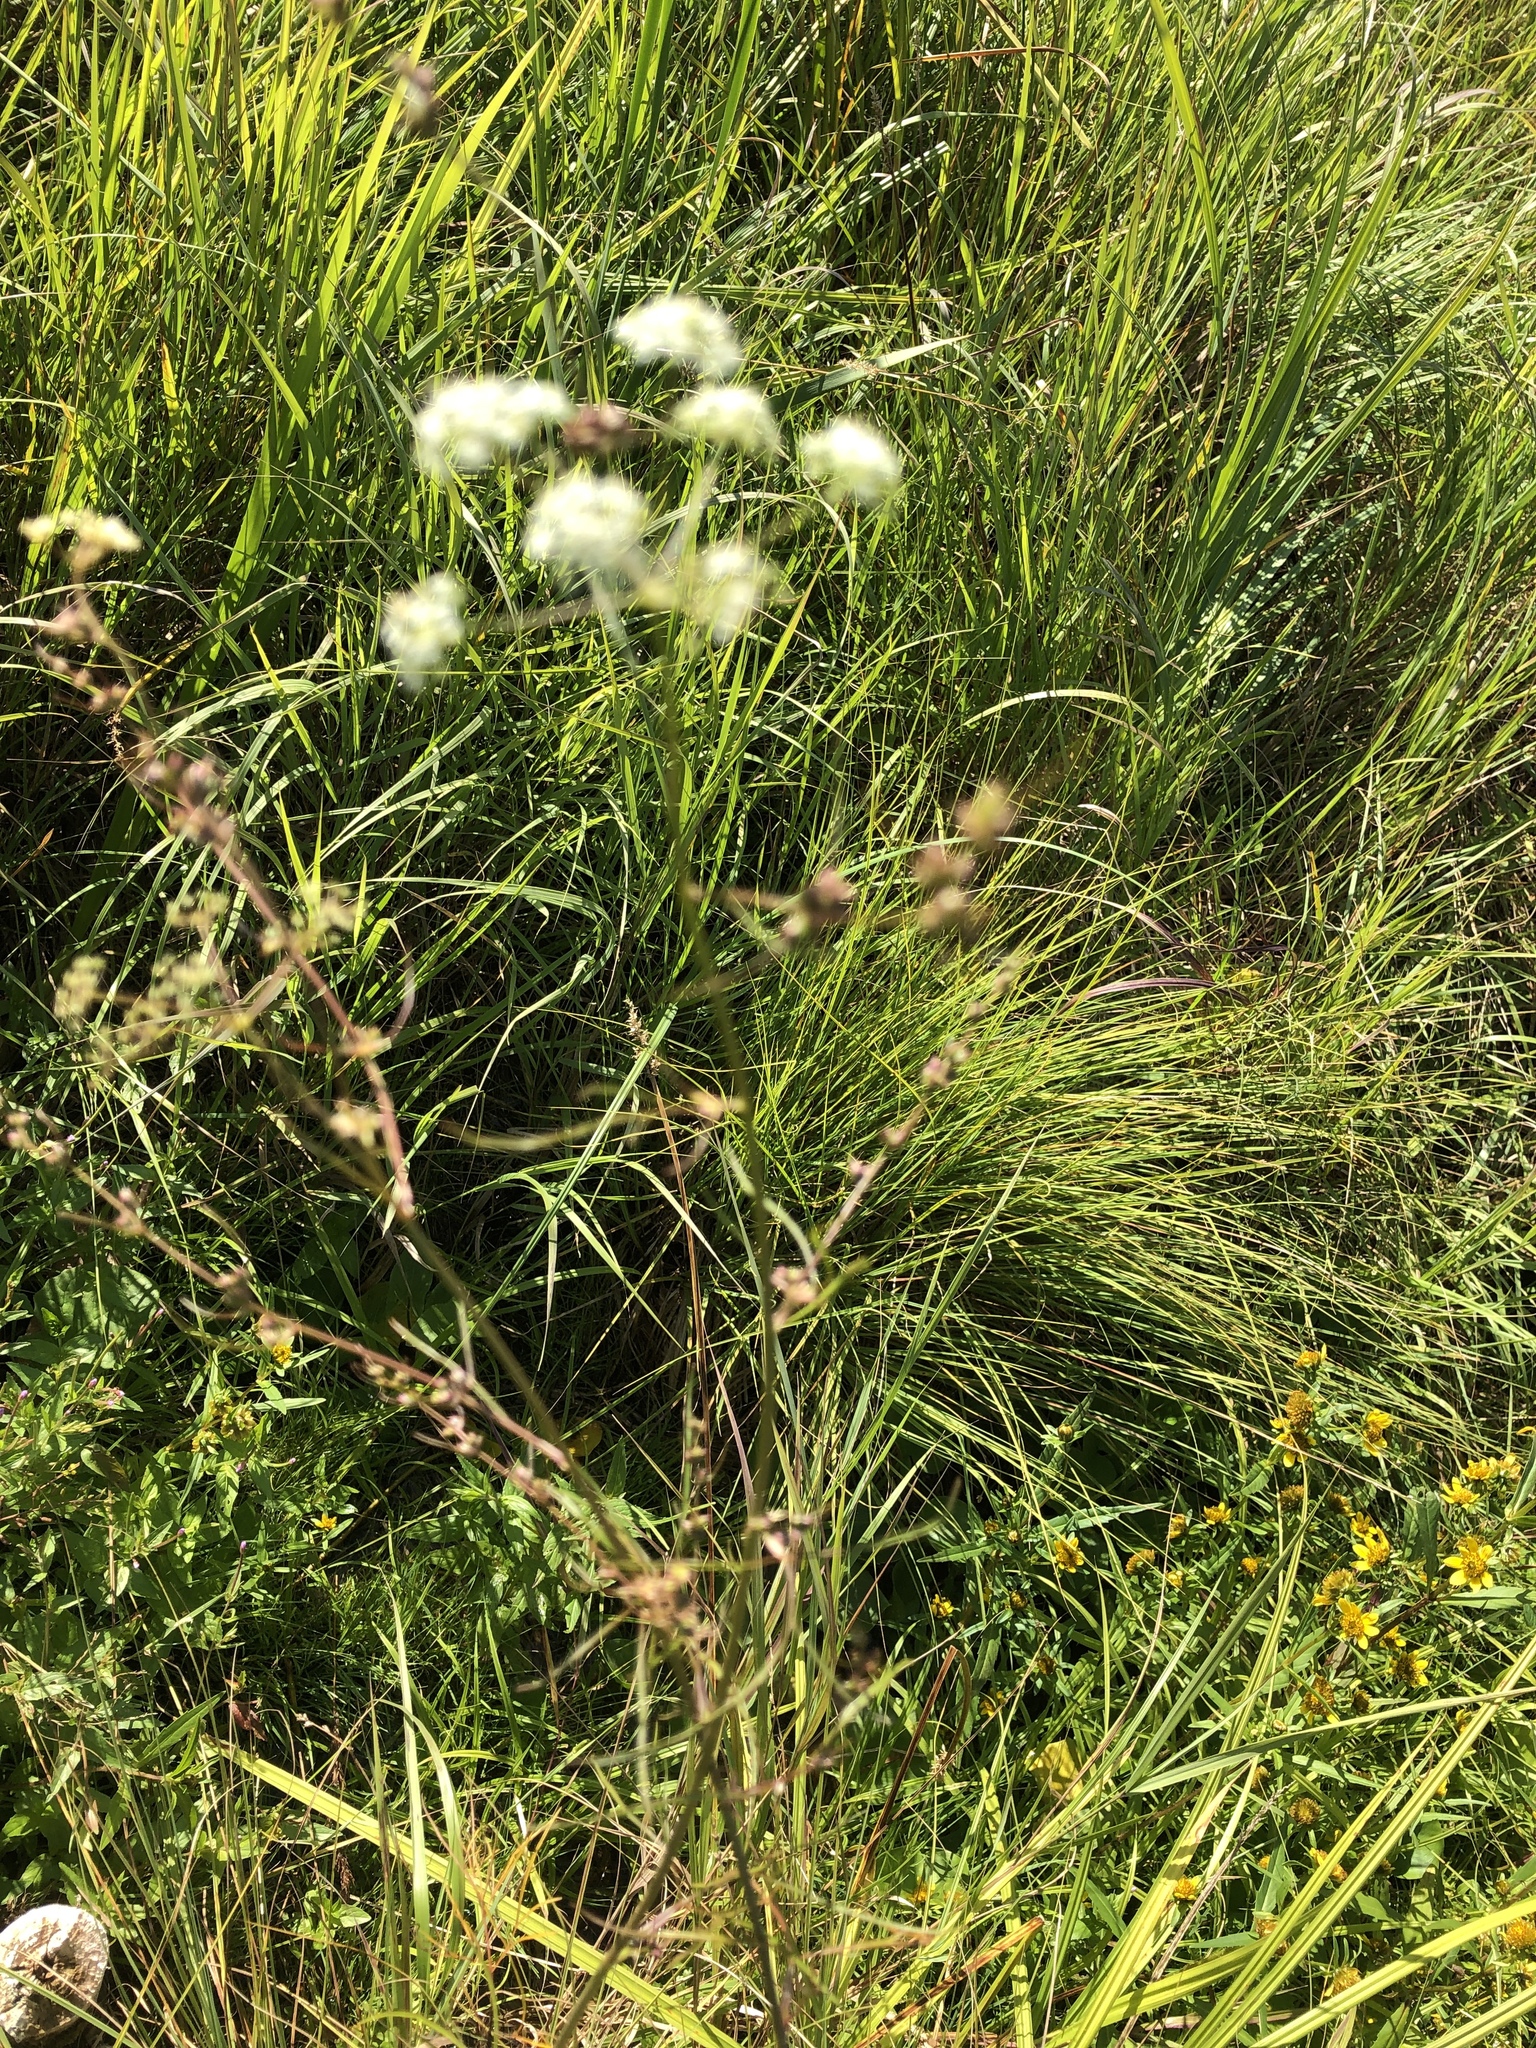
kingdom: Plantae
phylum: Tracheophyta
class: Magnoliopsida
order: Apiales
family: Apiaceae
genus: Cicuta
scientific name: Cicuta bulbifera
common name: Bulb-bearing water-hemlock
